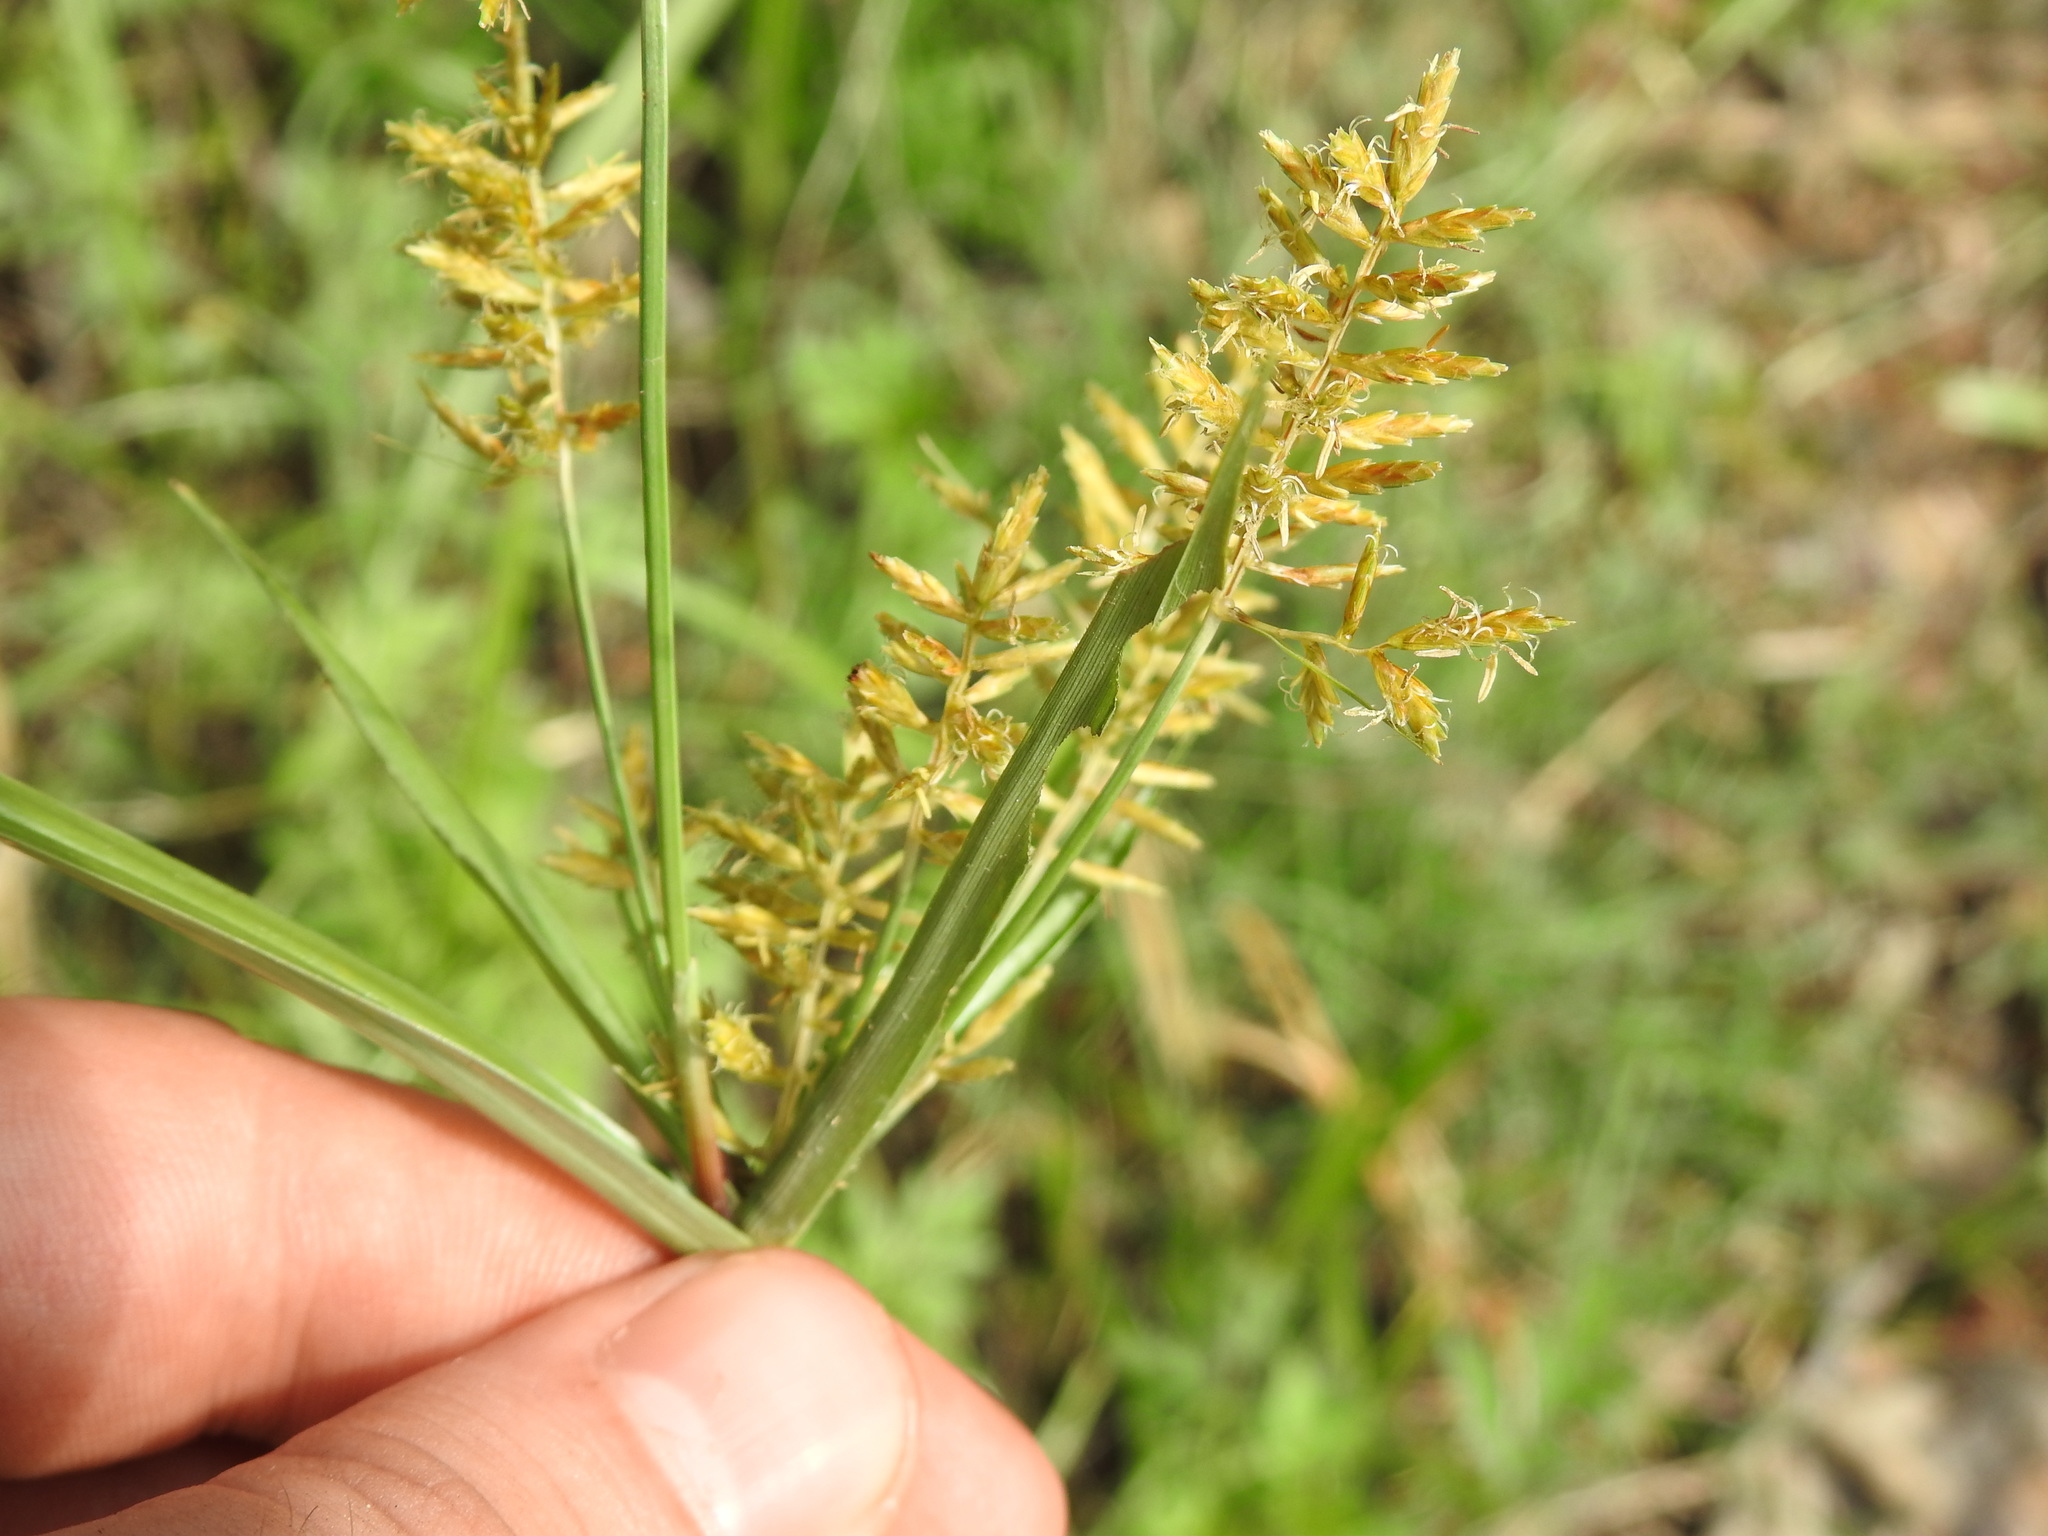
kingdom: Plantae
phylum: Tracheophyta
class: Liliopsida
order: Poales
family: Cyperaceae
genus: Cyperus
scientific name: Cyperus esculentus
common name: Yellow nutsedge
